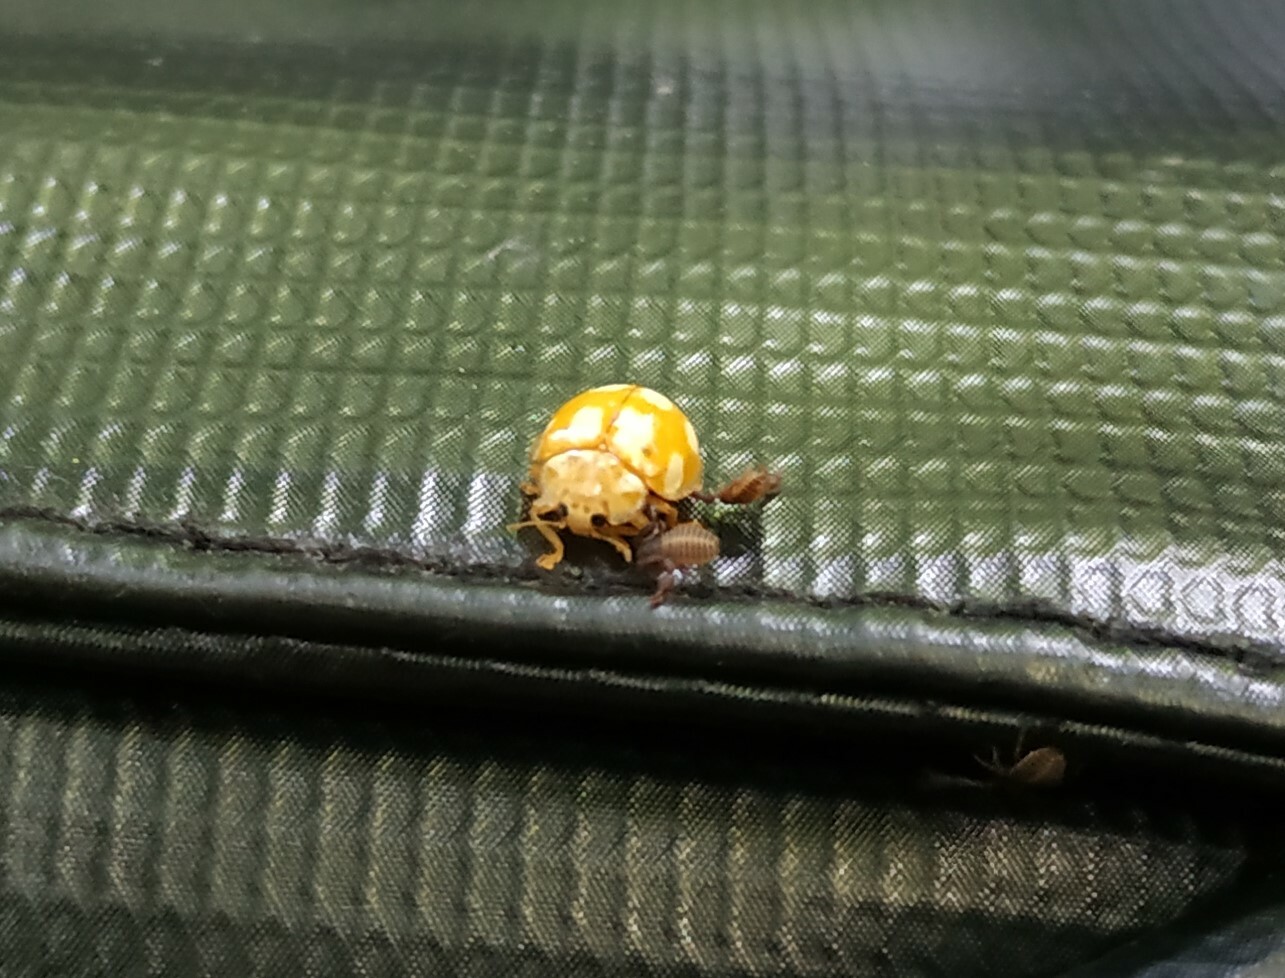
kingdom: Animalia
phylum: Arthropoda
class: Insecta
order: Coleoptera
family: Coccinellidae
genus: Calvia
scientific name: Calvia decemguttata
